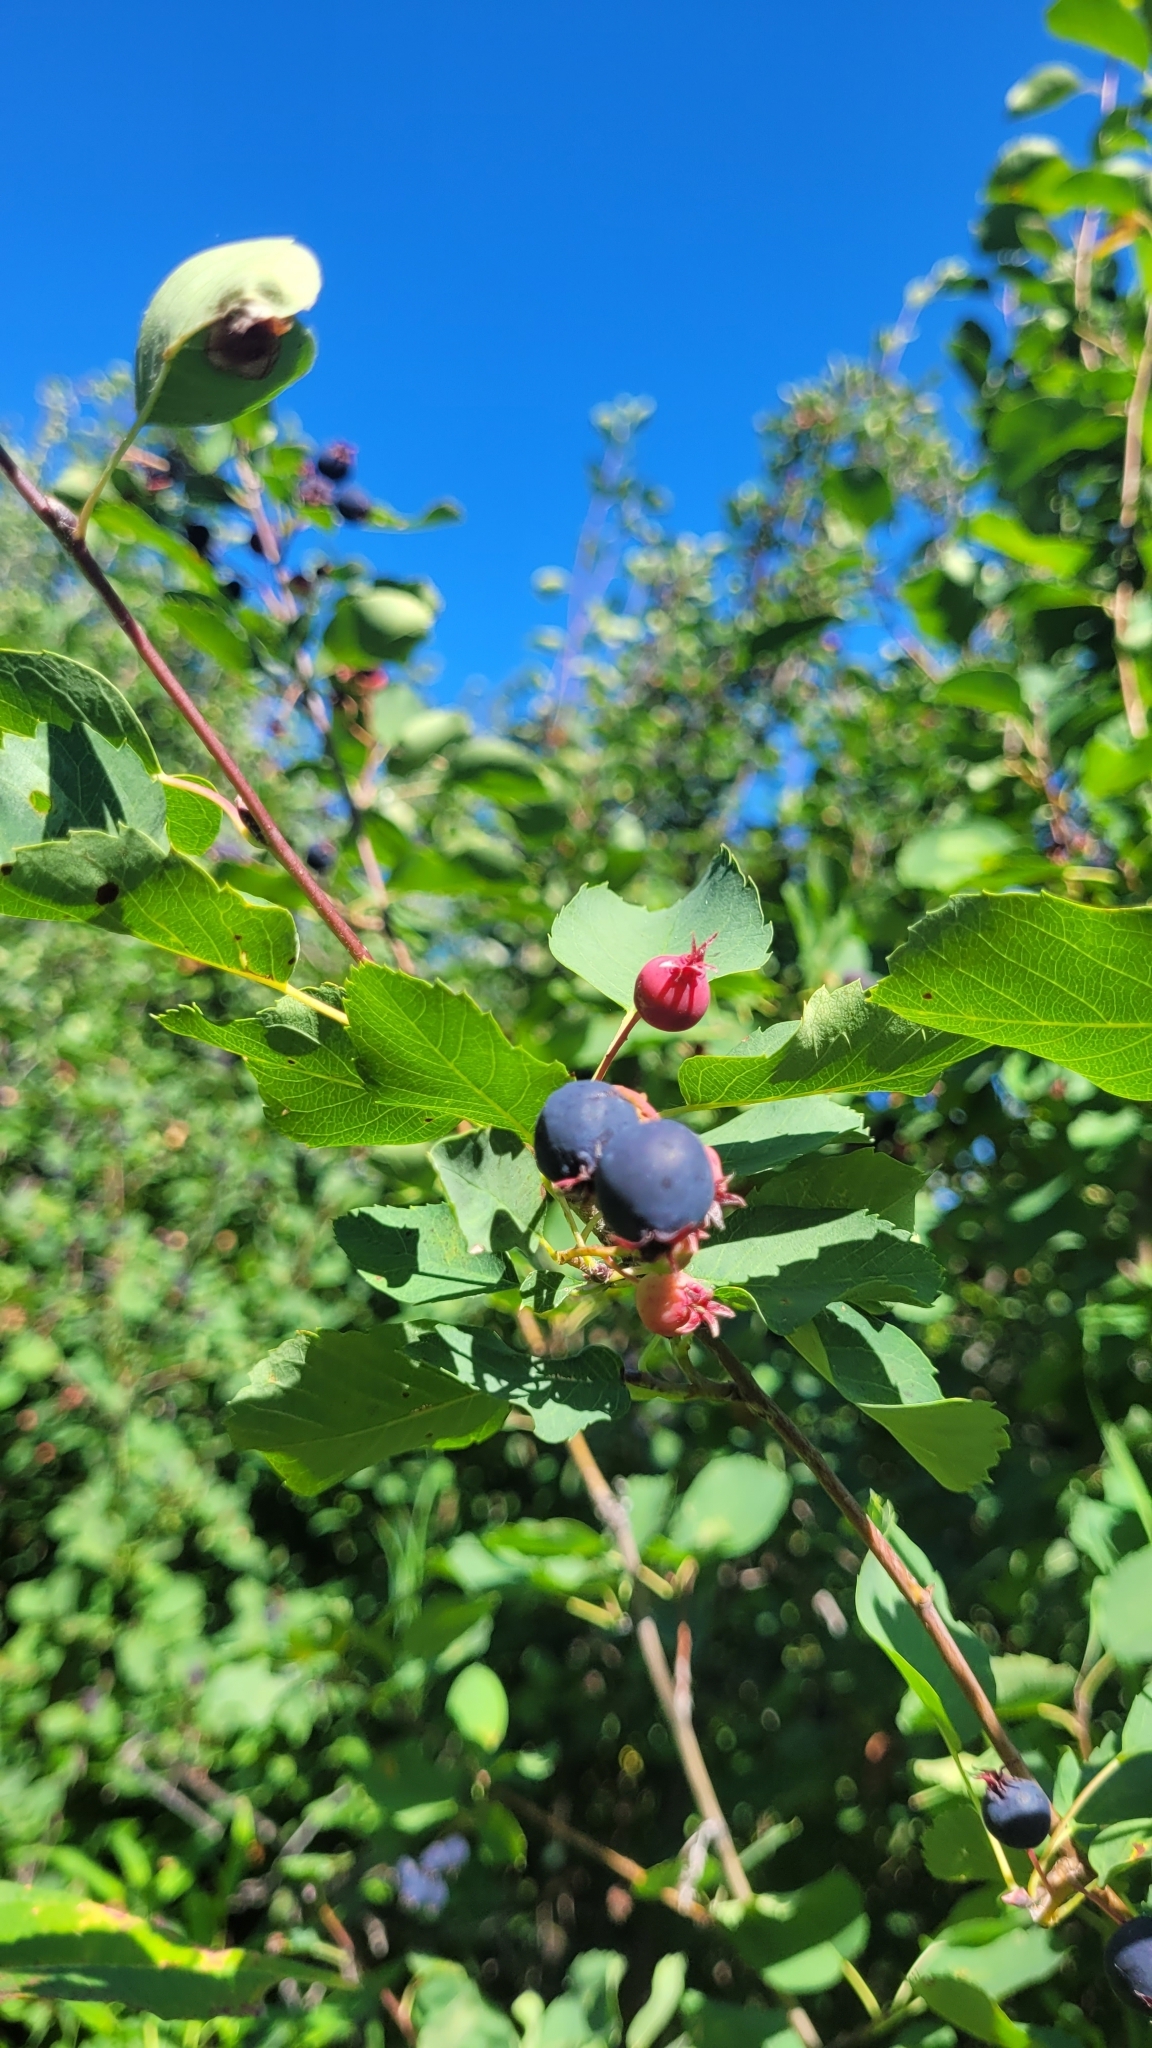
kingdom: Plantae
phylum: Tracheophyta
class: Magnoliopsida
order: Rosales
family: Rosaceae
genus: Amelanchier
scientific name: Amelanchier alnifolia
